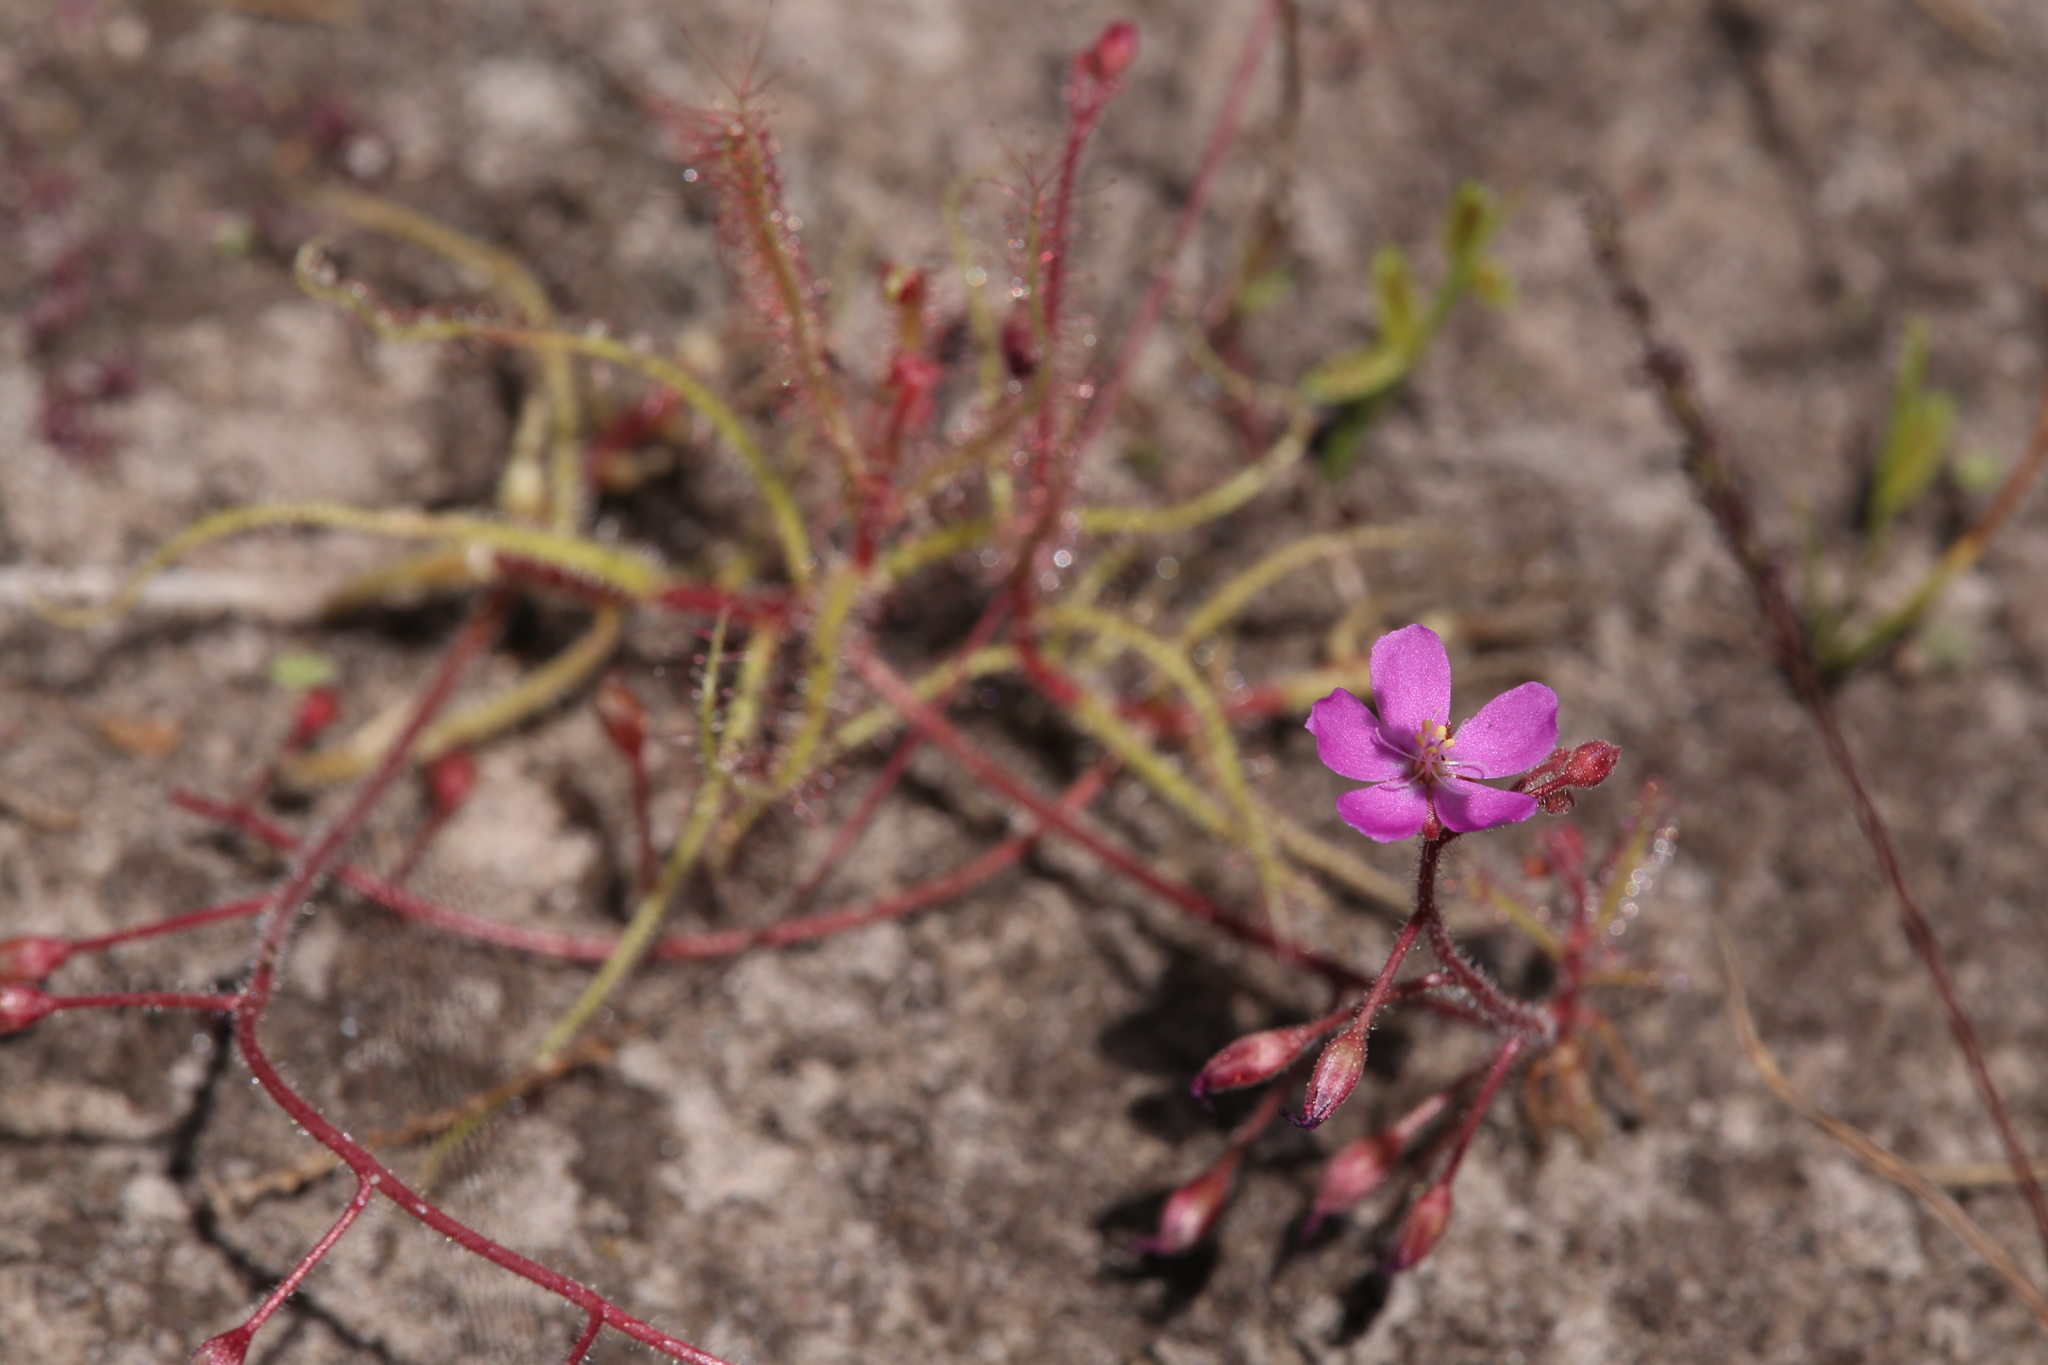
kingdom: Plantae
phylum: Tracheophyta
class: Magnoliopsida
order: Caryophyllales
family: Droseraceae
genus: Drosera
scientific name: Drosera aquatica
